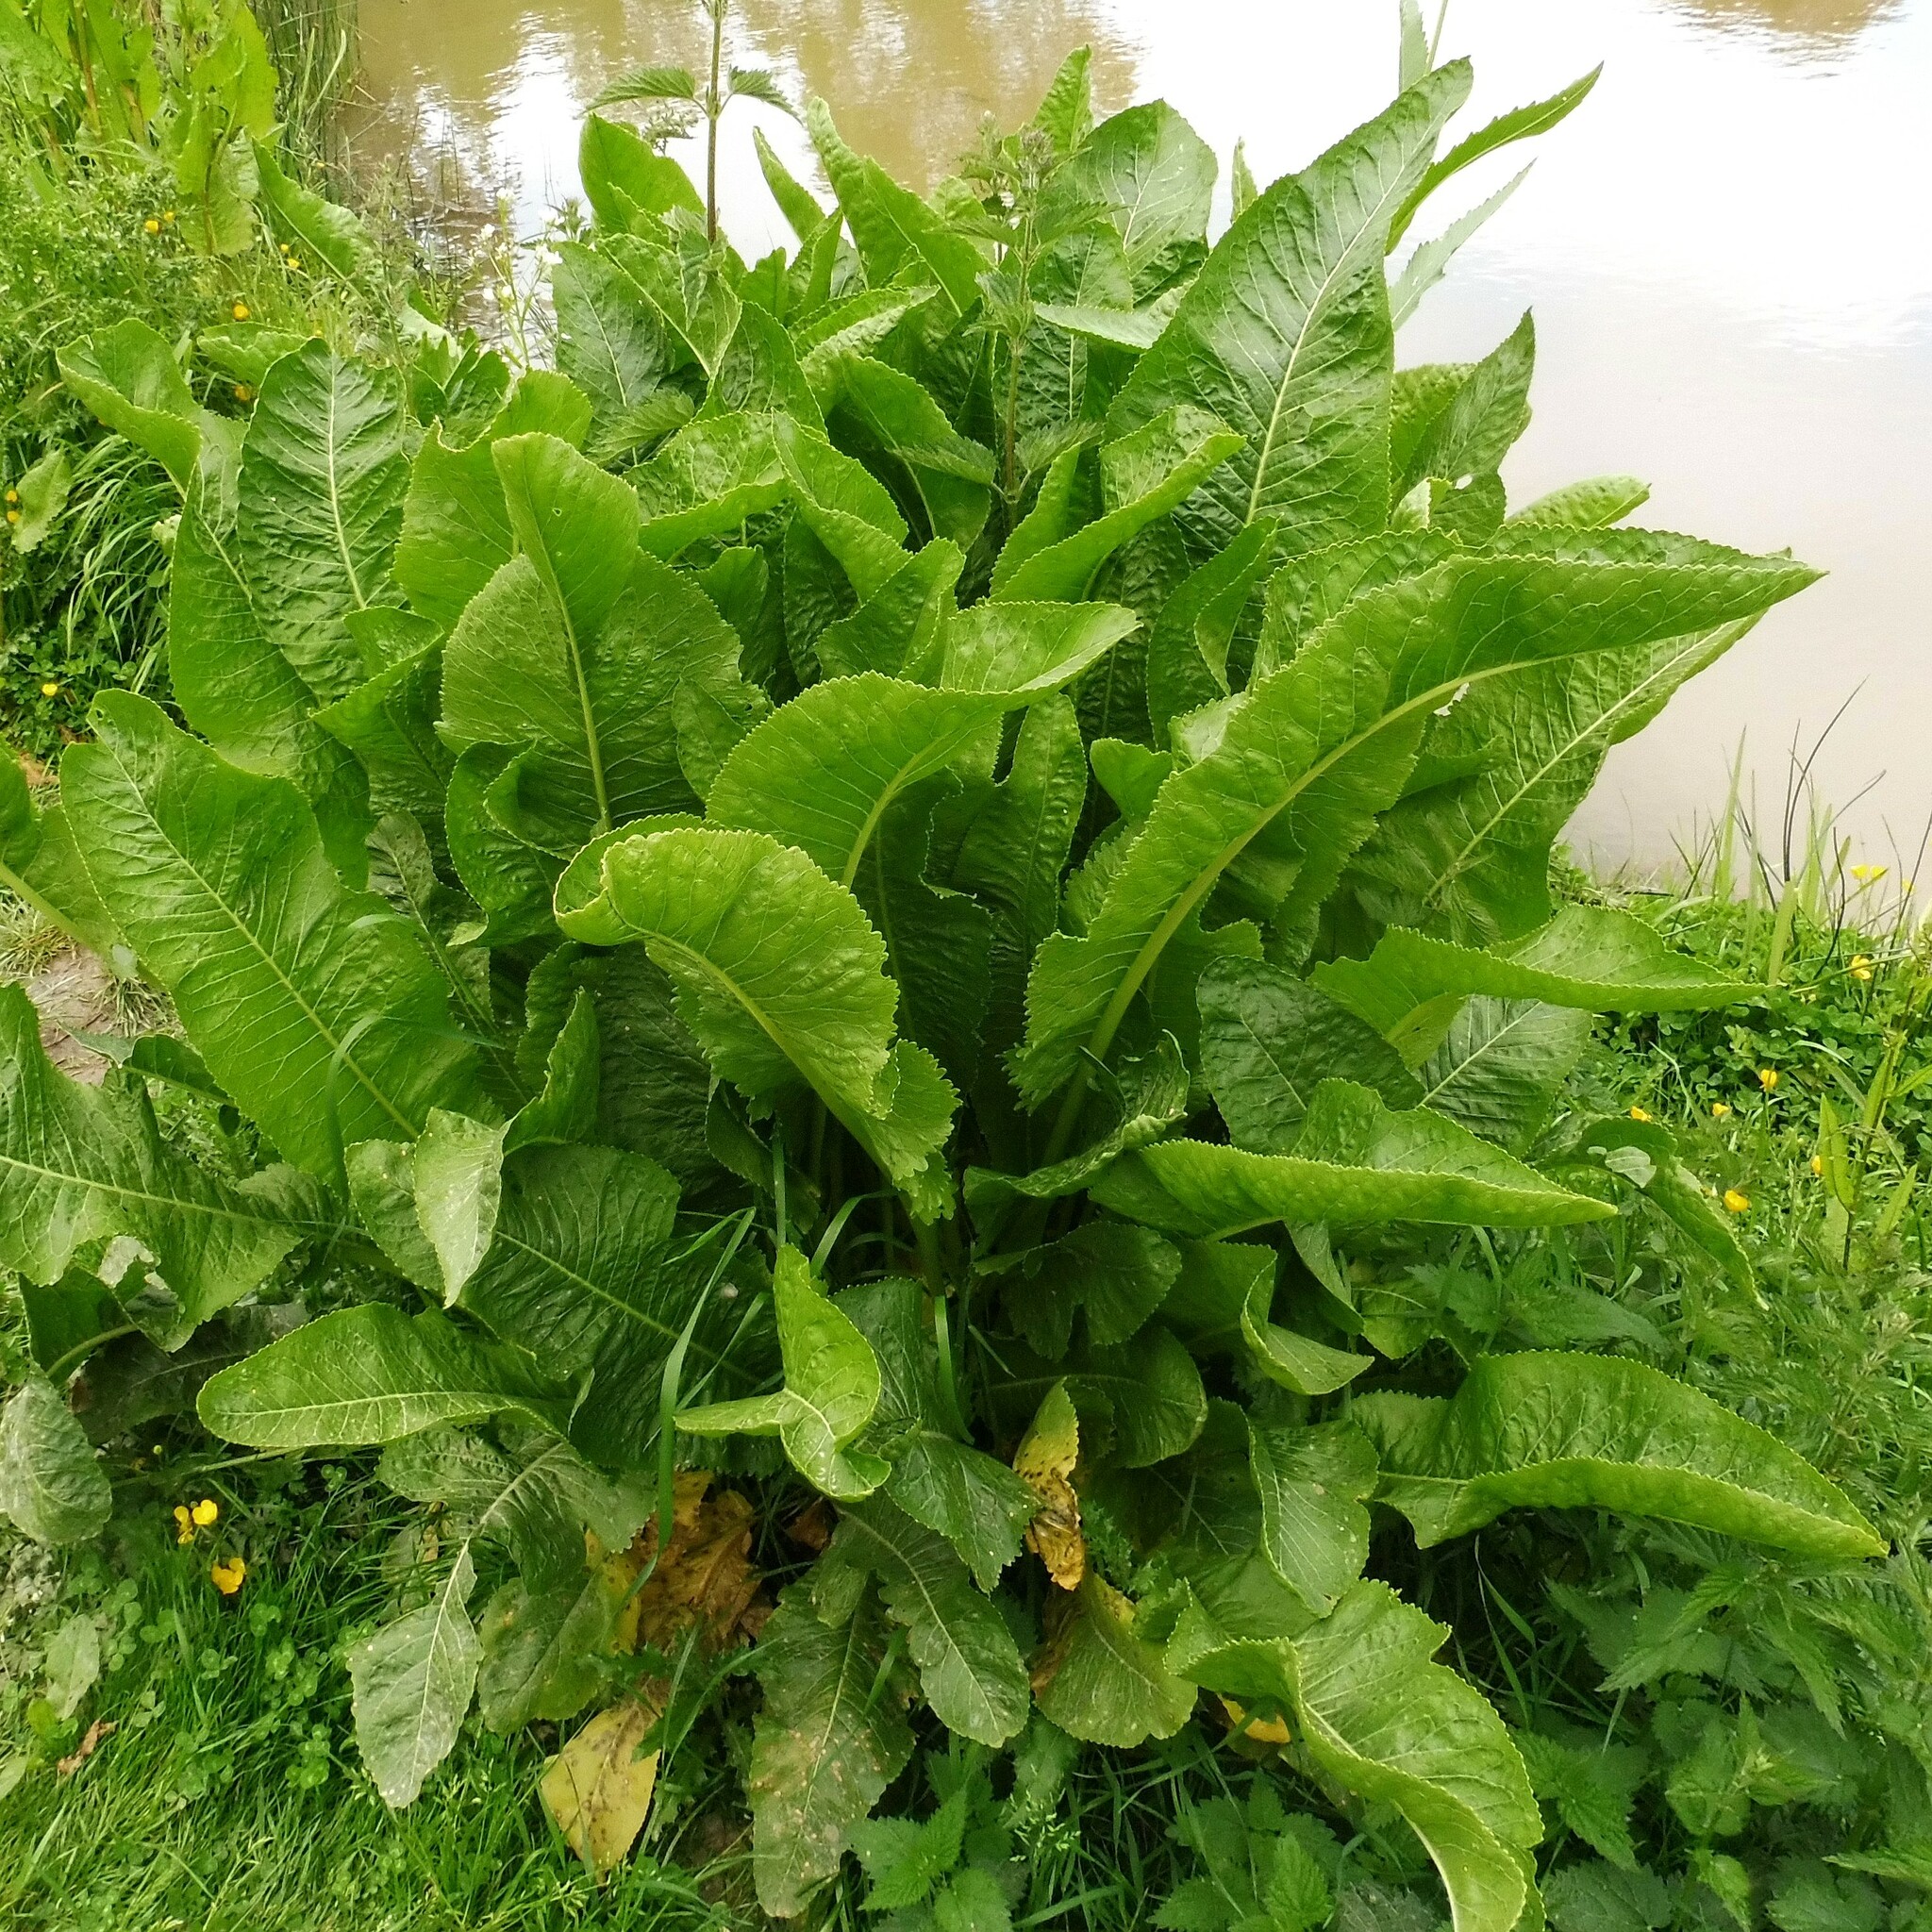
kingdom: Plantae
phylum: Tracheophyta
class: Magnoliopsida
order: Brassicales
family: Brassicaceae
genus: Armoracia
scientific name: Armoracia rusticana
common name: Horseradish
